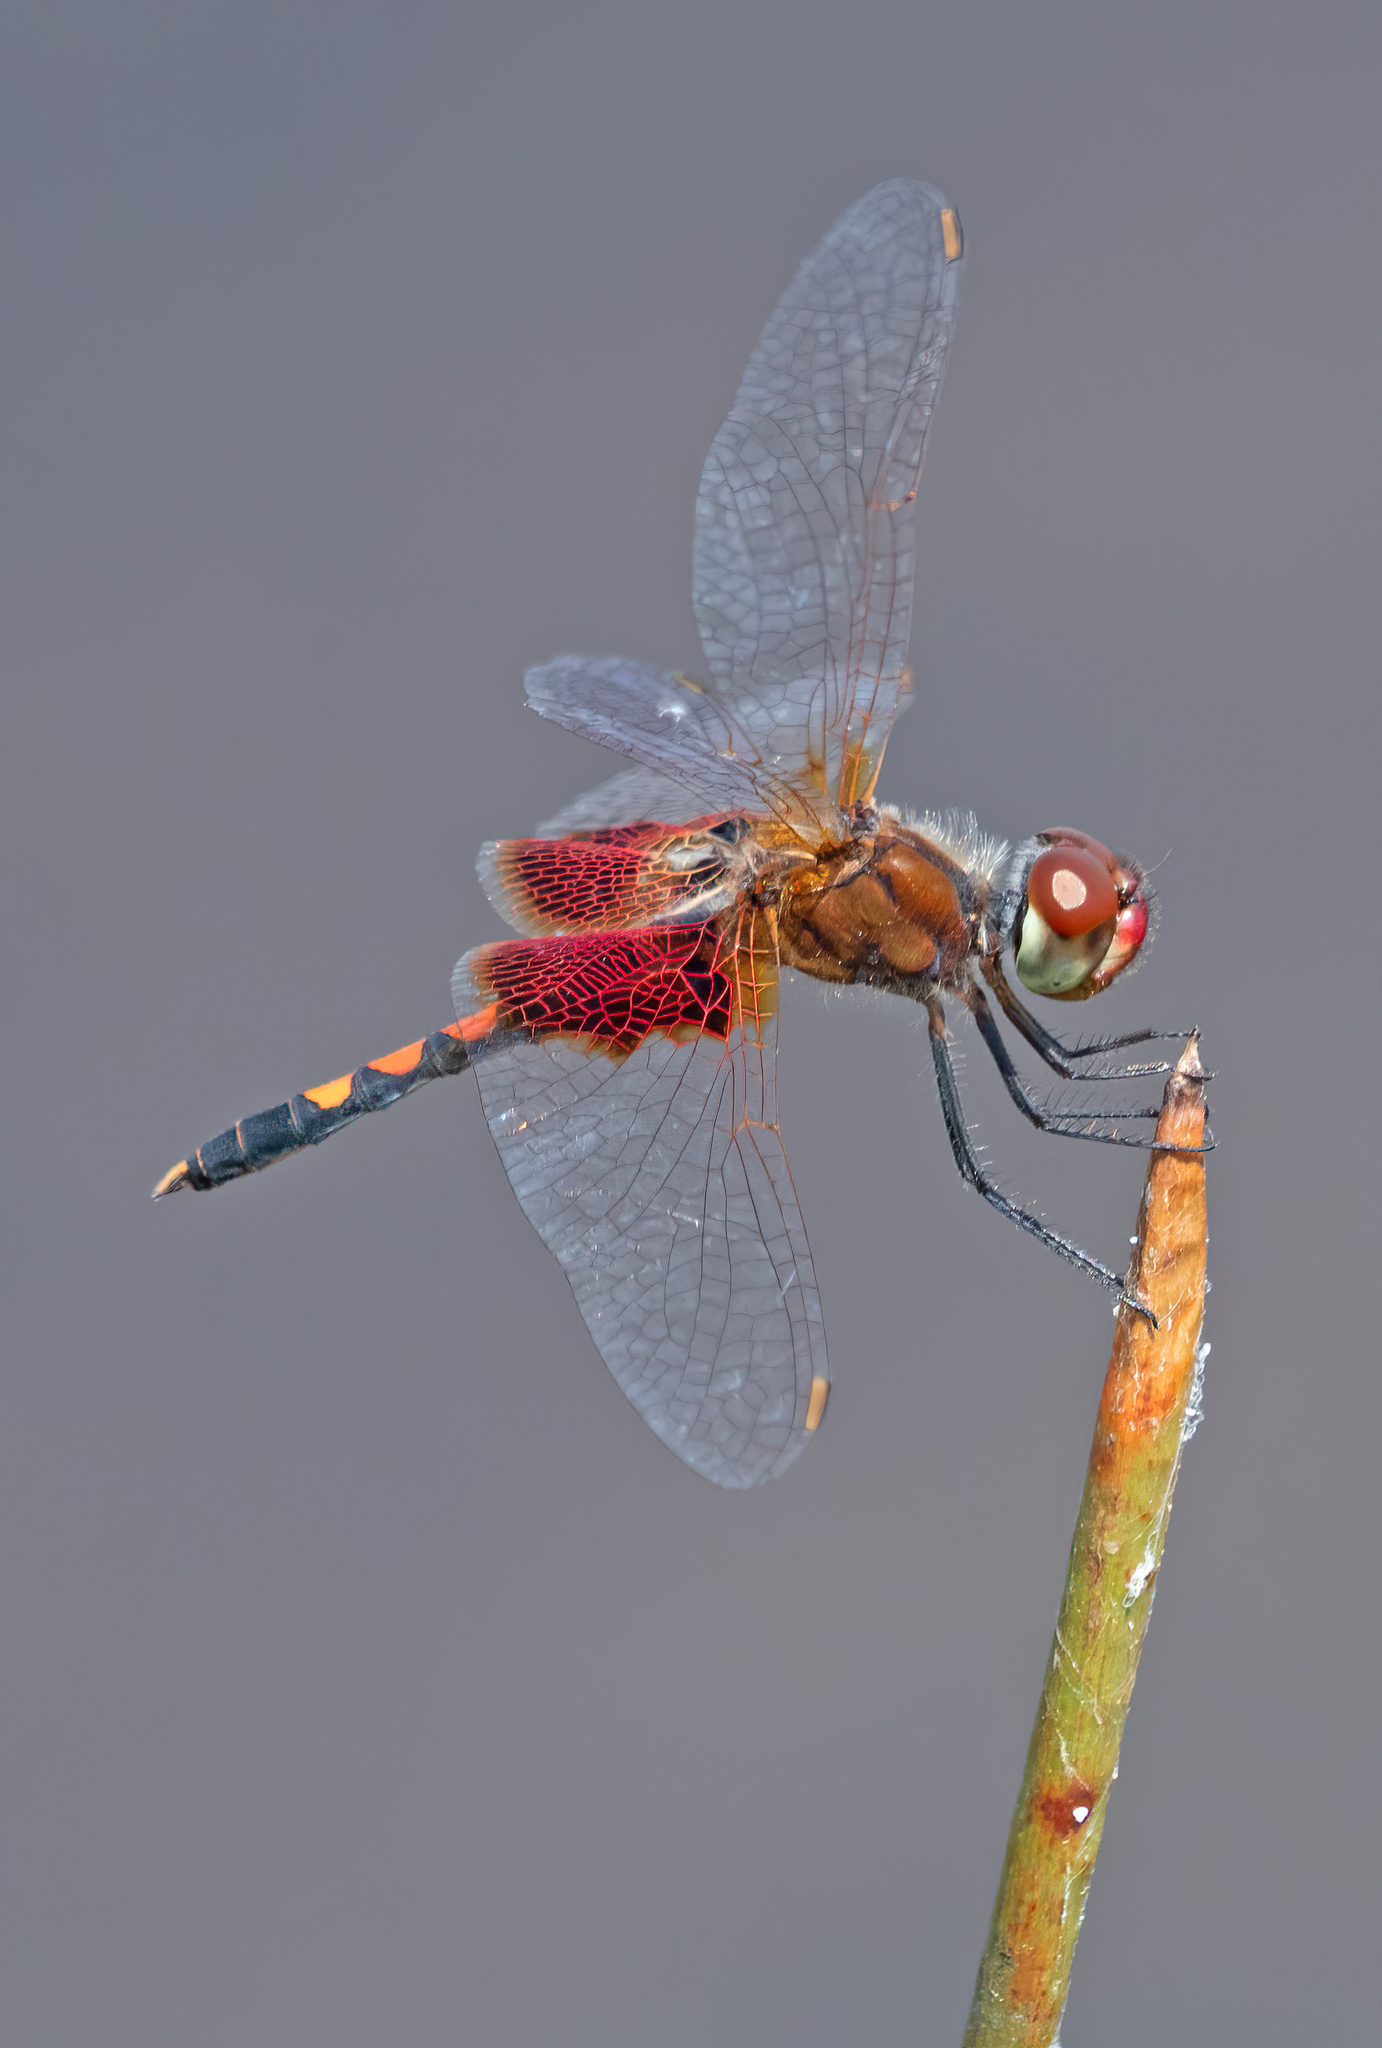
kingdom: Animalia
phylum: Arthropoda
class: Insecta
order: Odonata
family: Libellulidae
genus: Celithemis
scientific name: Celithemis amanda
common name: Amanda's pennant
